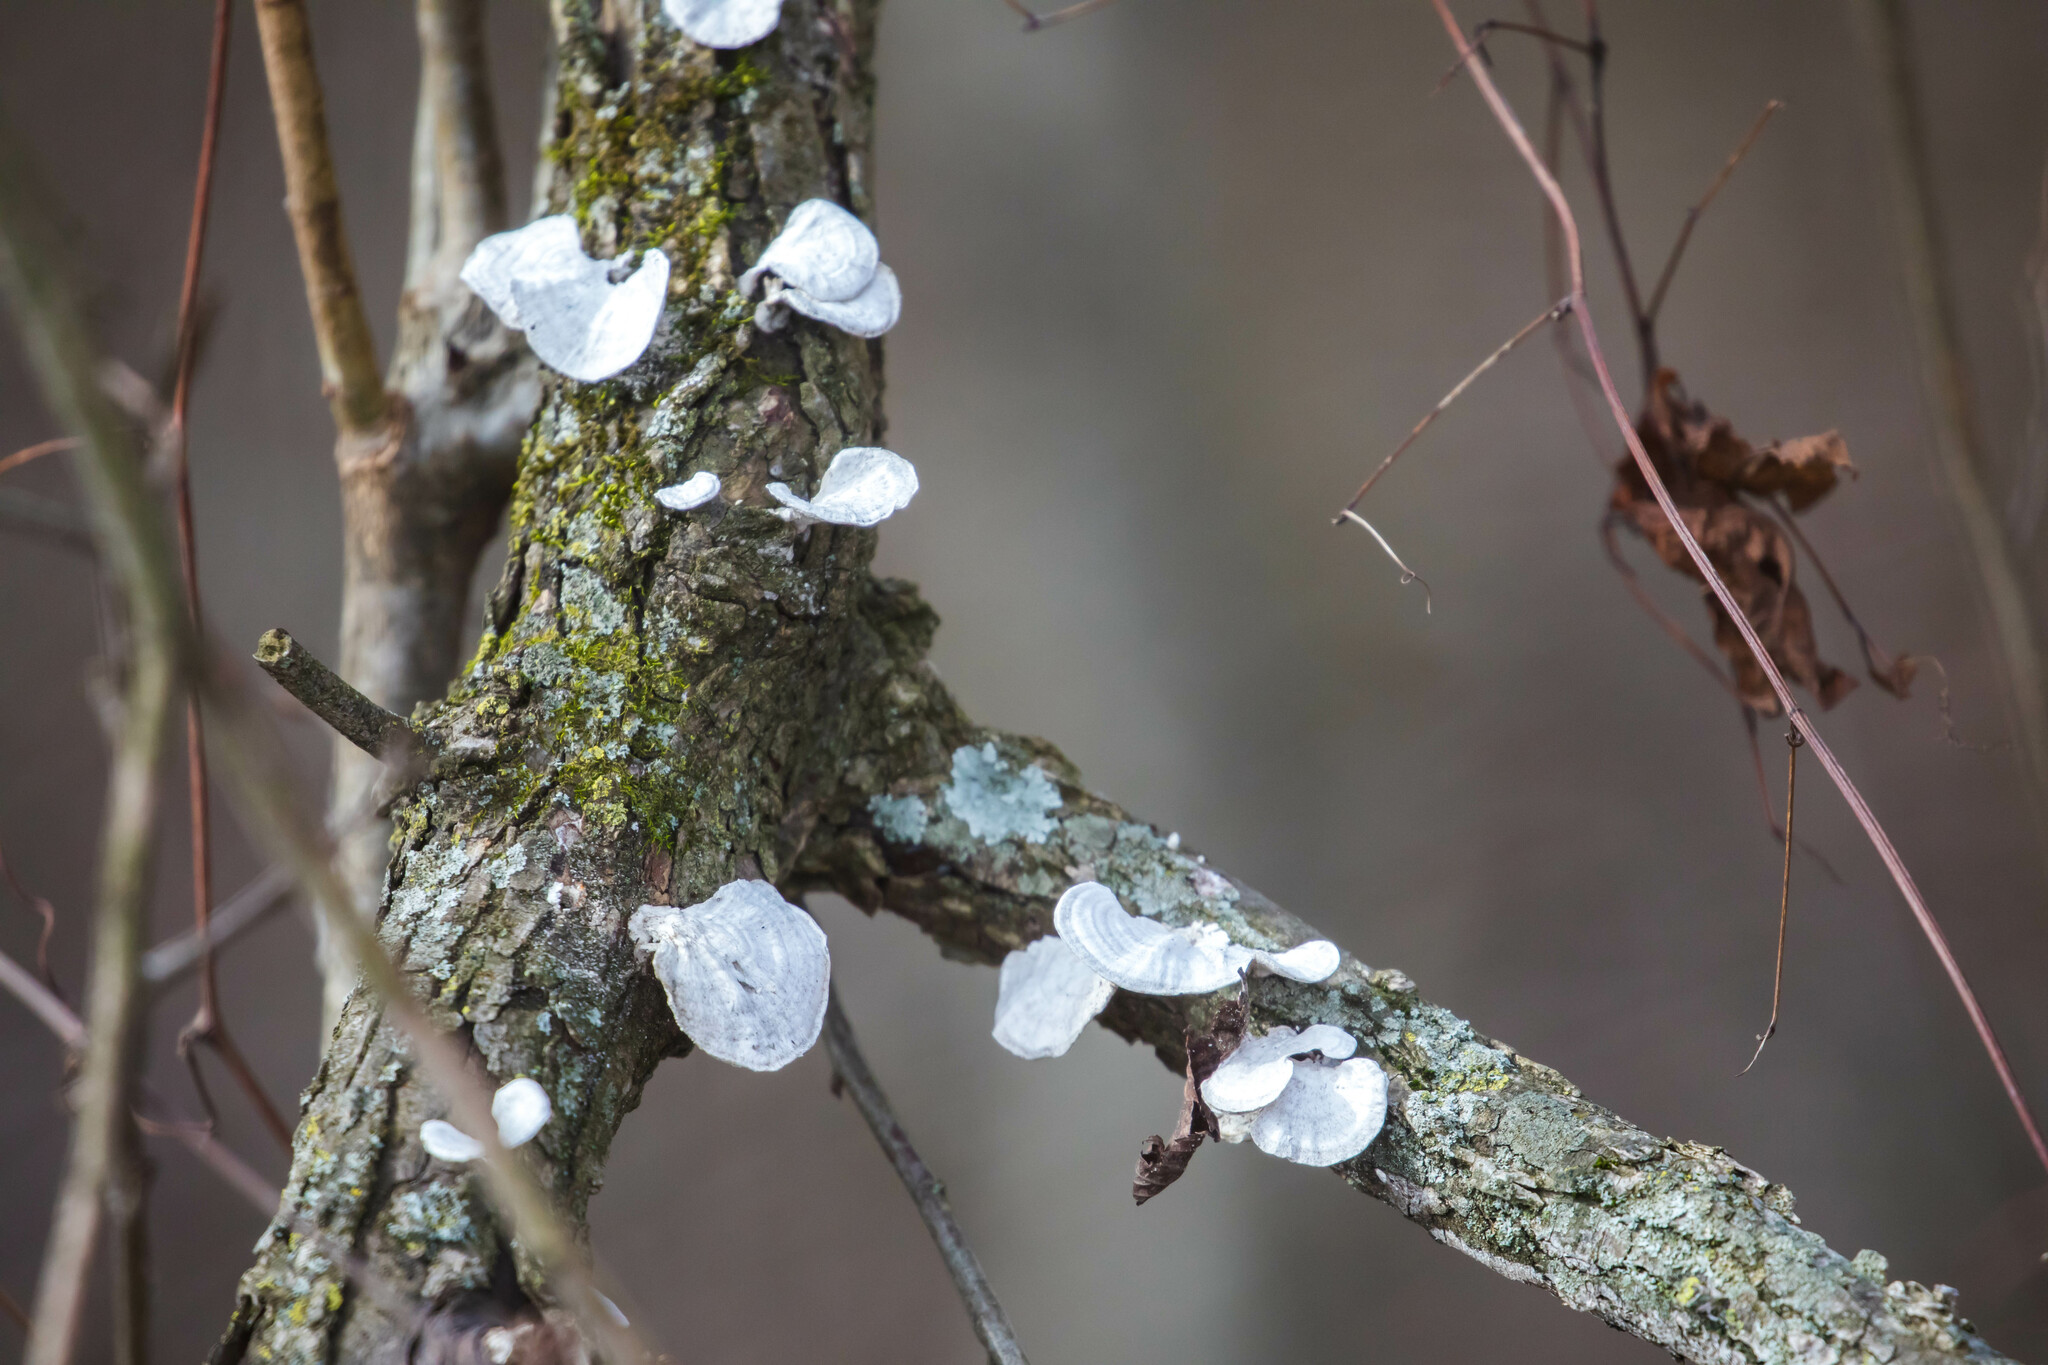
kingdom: Fungi
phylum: Basidiomycota
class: Agaricomycetes
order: Polyporales
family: Polyporaceae
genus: Poronidulus
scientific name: Poronidulus conchifer
